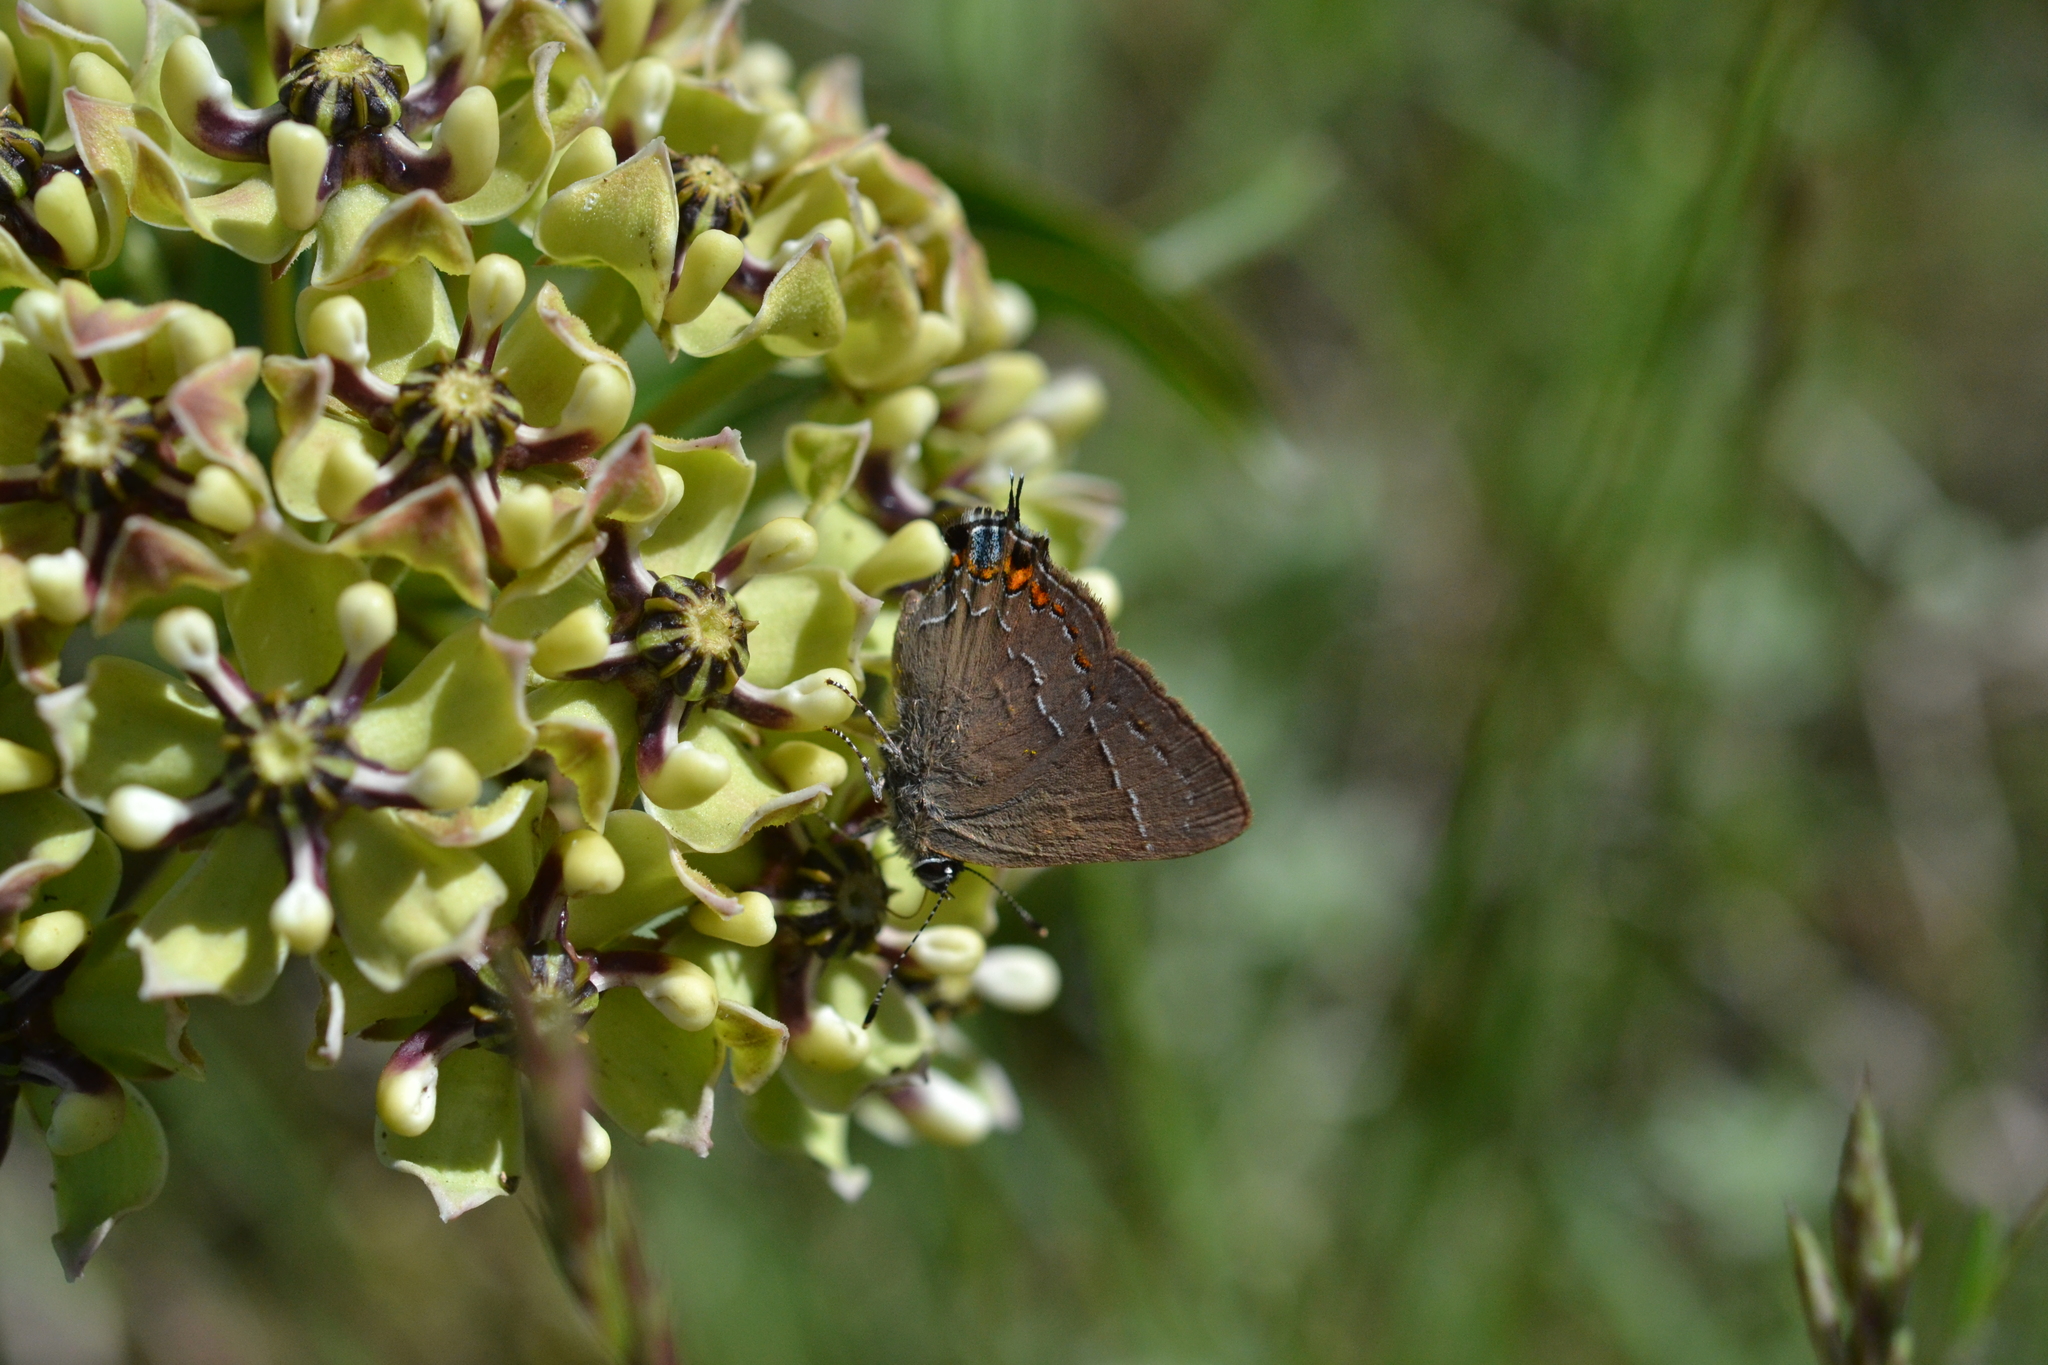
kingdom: Animalia
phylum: Arthropoda
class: Insecta
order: Lepidoptera
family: Lycaenidae
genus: Fixsenia
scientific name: Fixsenia favonius
